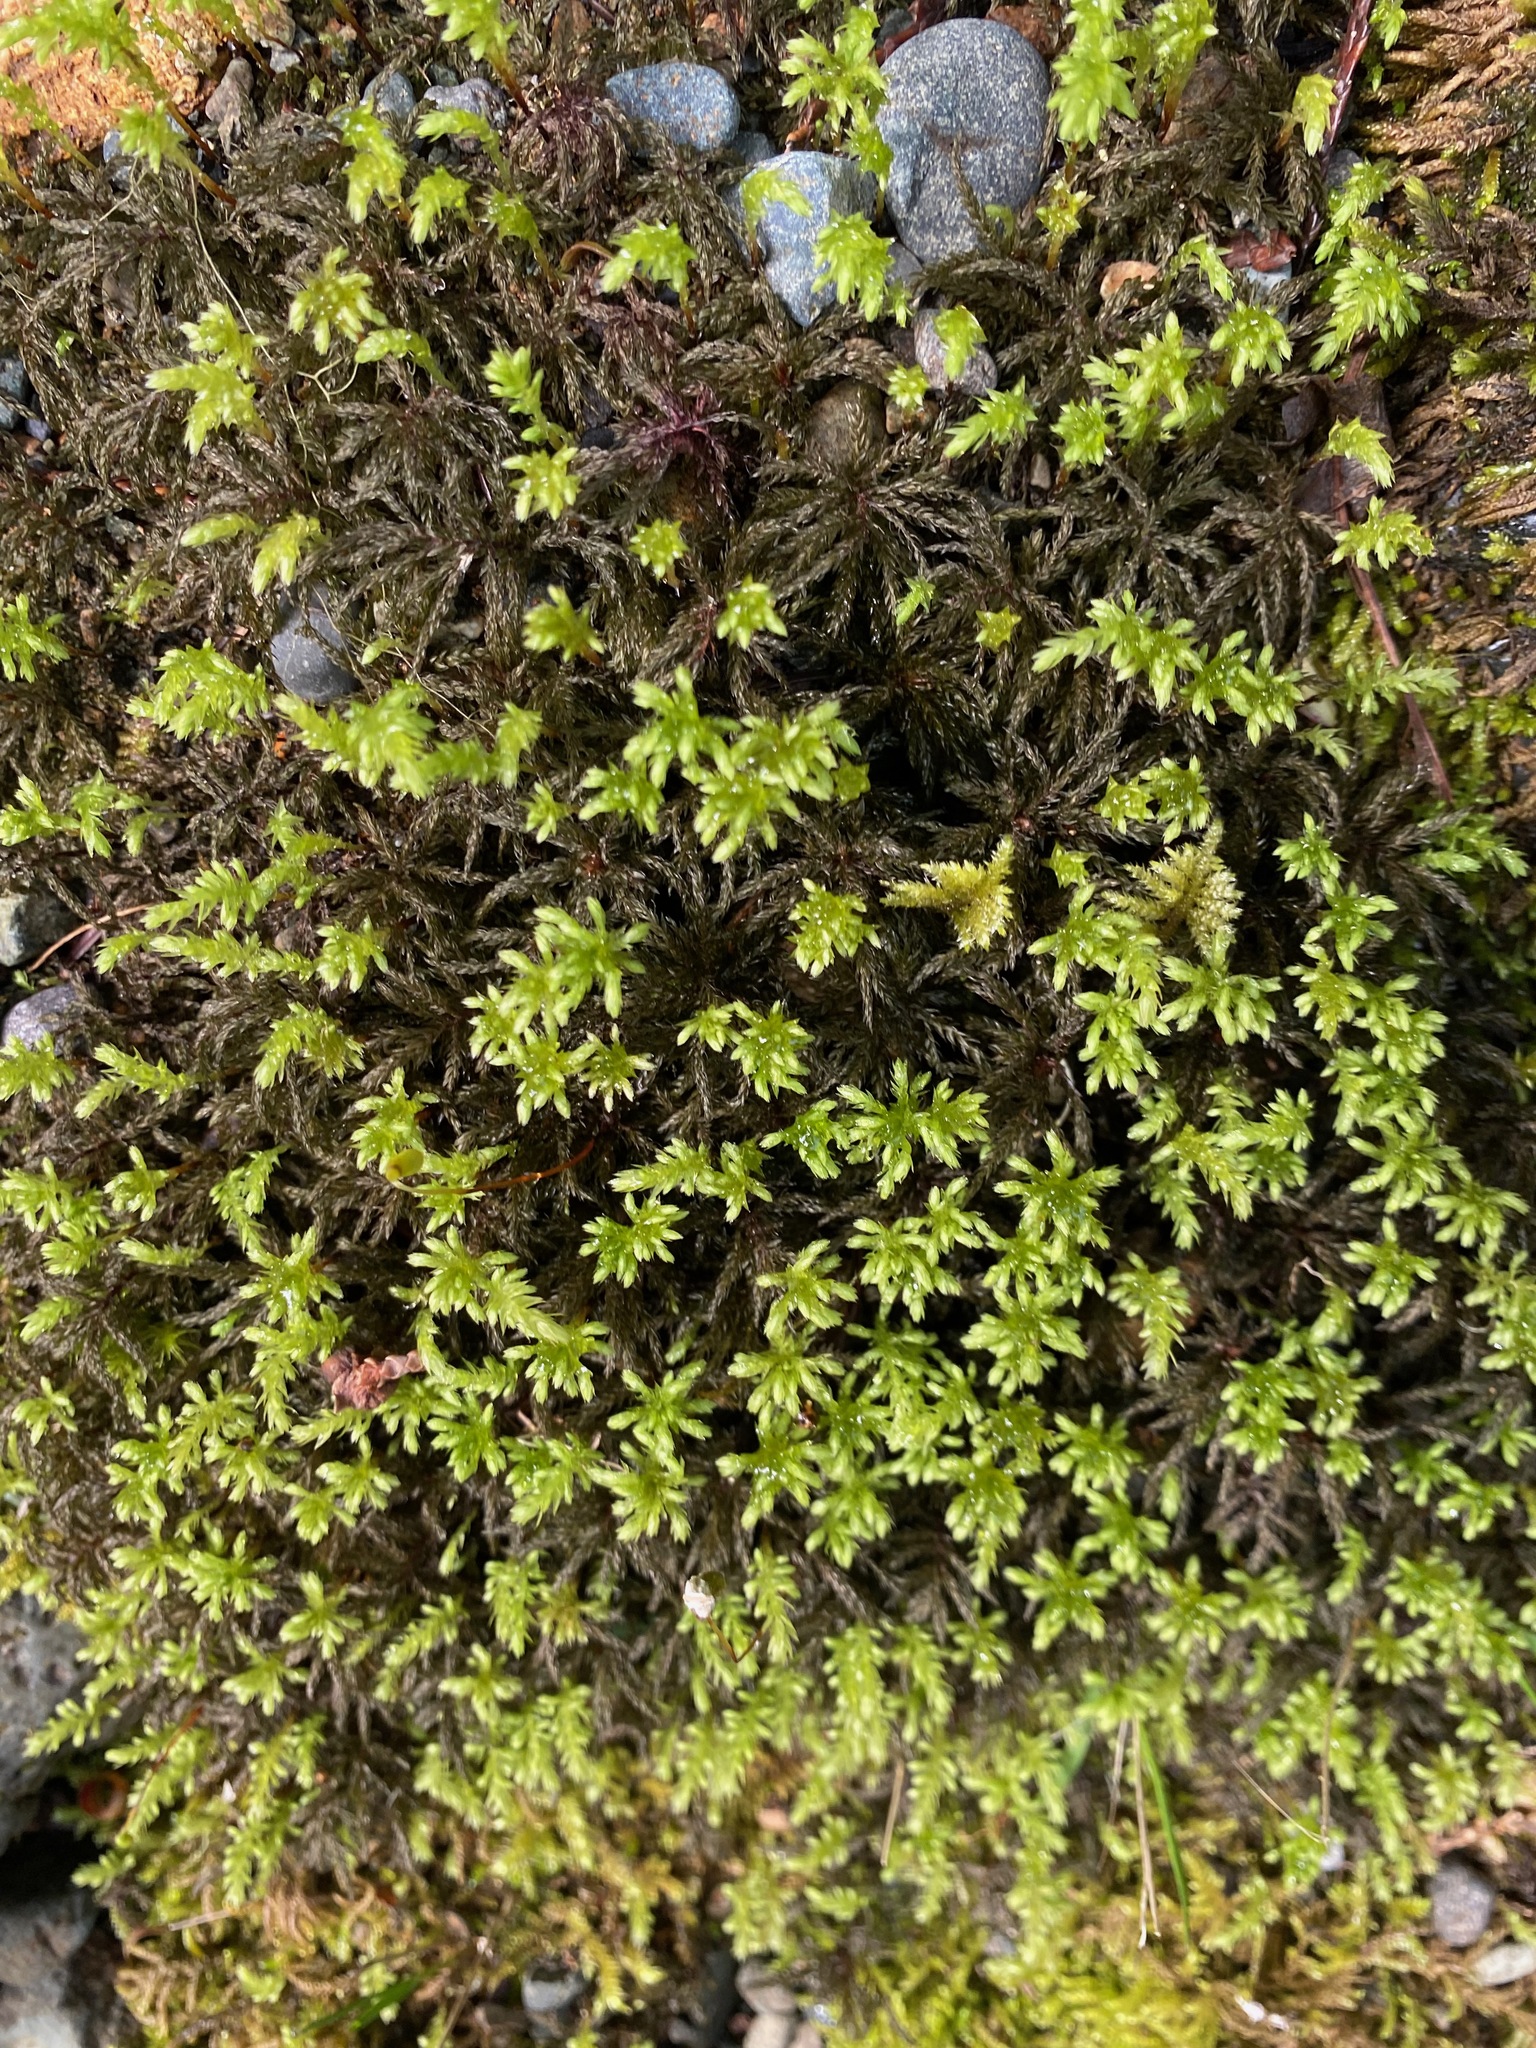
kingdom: Plantae
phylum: Bryophyta
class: Bryopsida
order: Bryales
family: Mniaceae
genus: Leucolepis
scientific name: Leucolepis acanthoneura
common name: Leucolepis umbrella moss
